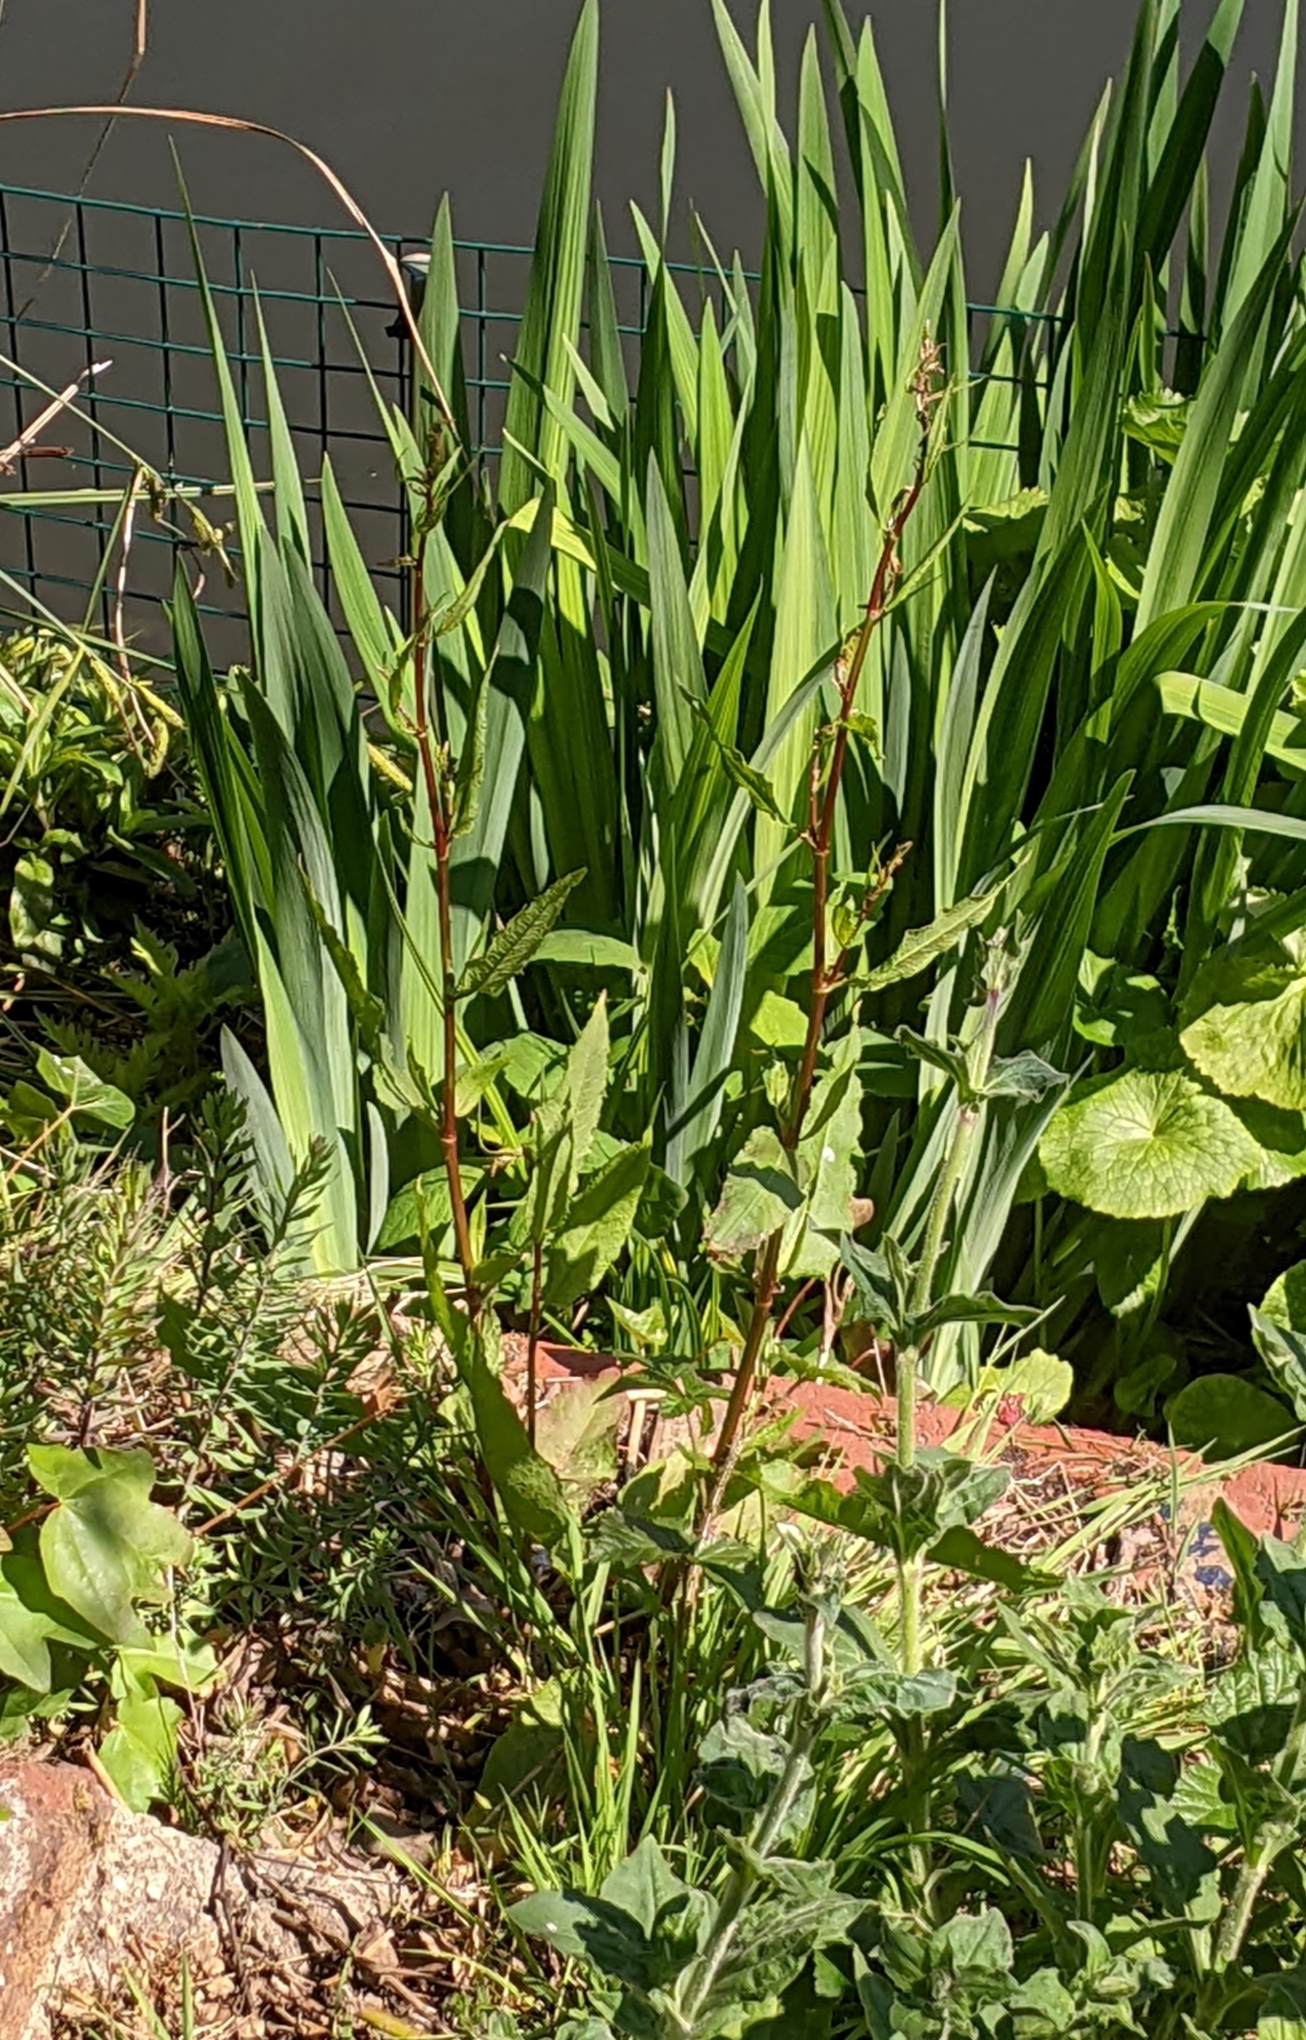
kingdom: Plantae
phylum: Tracheophyta
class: Magnoliopsida
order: Caryophyllales
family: Polygonaceae
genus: Rumex
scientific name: Rumex
